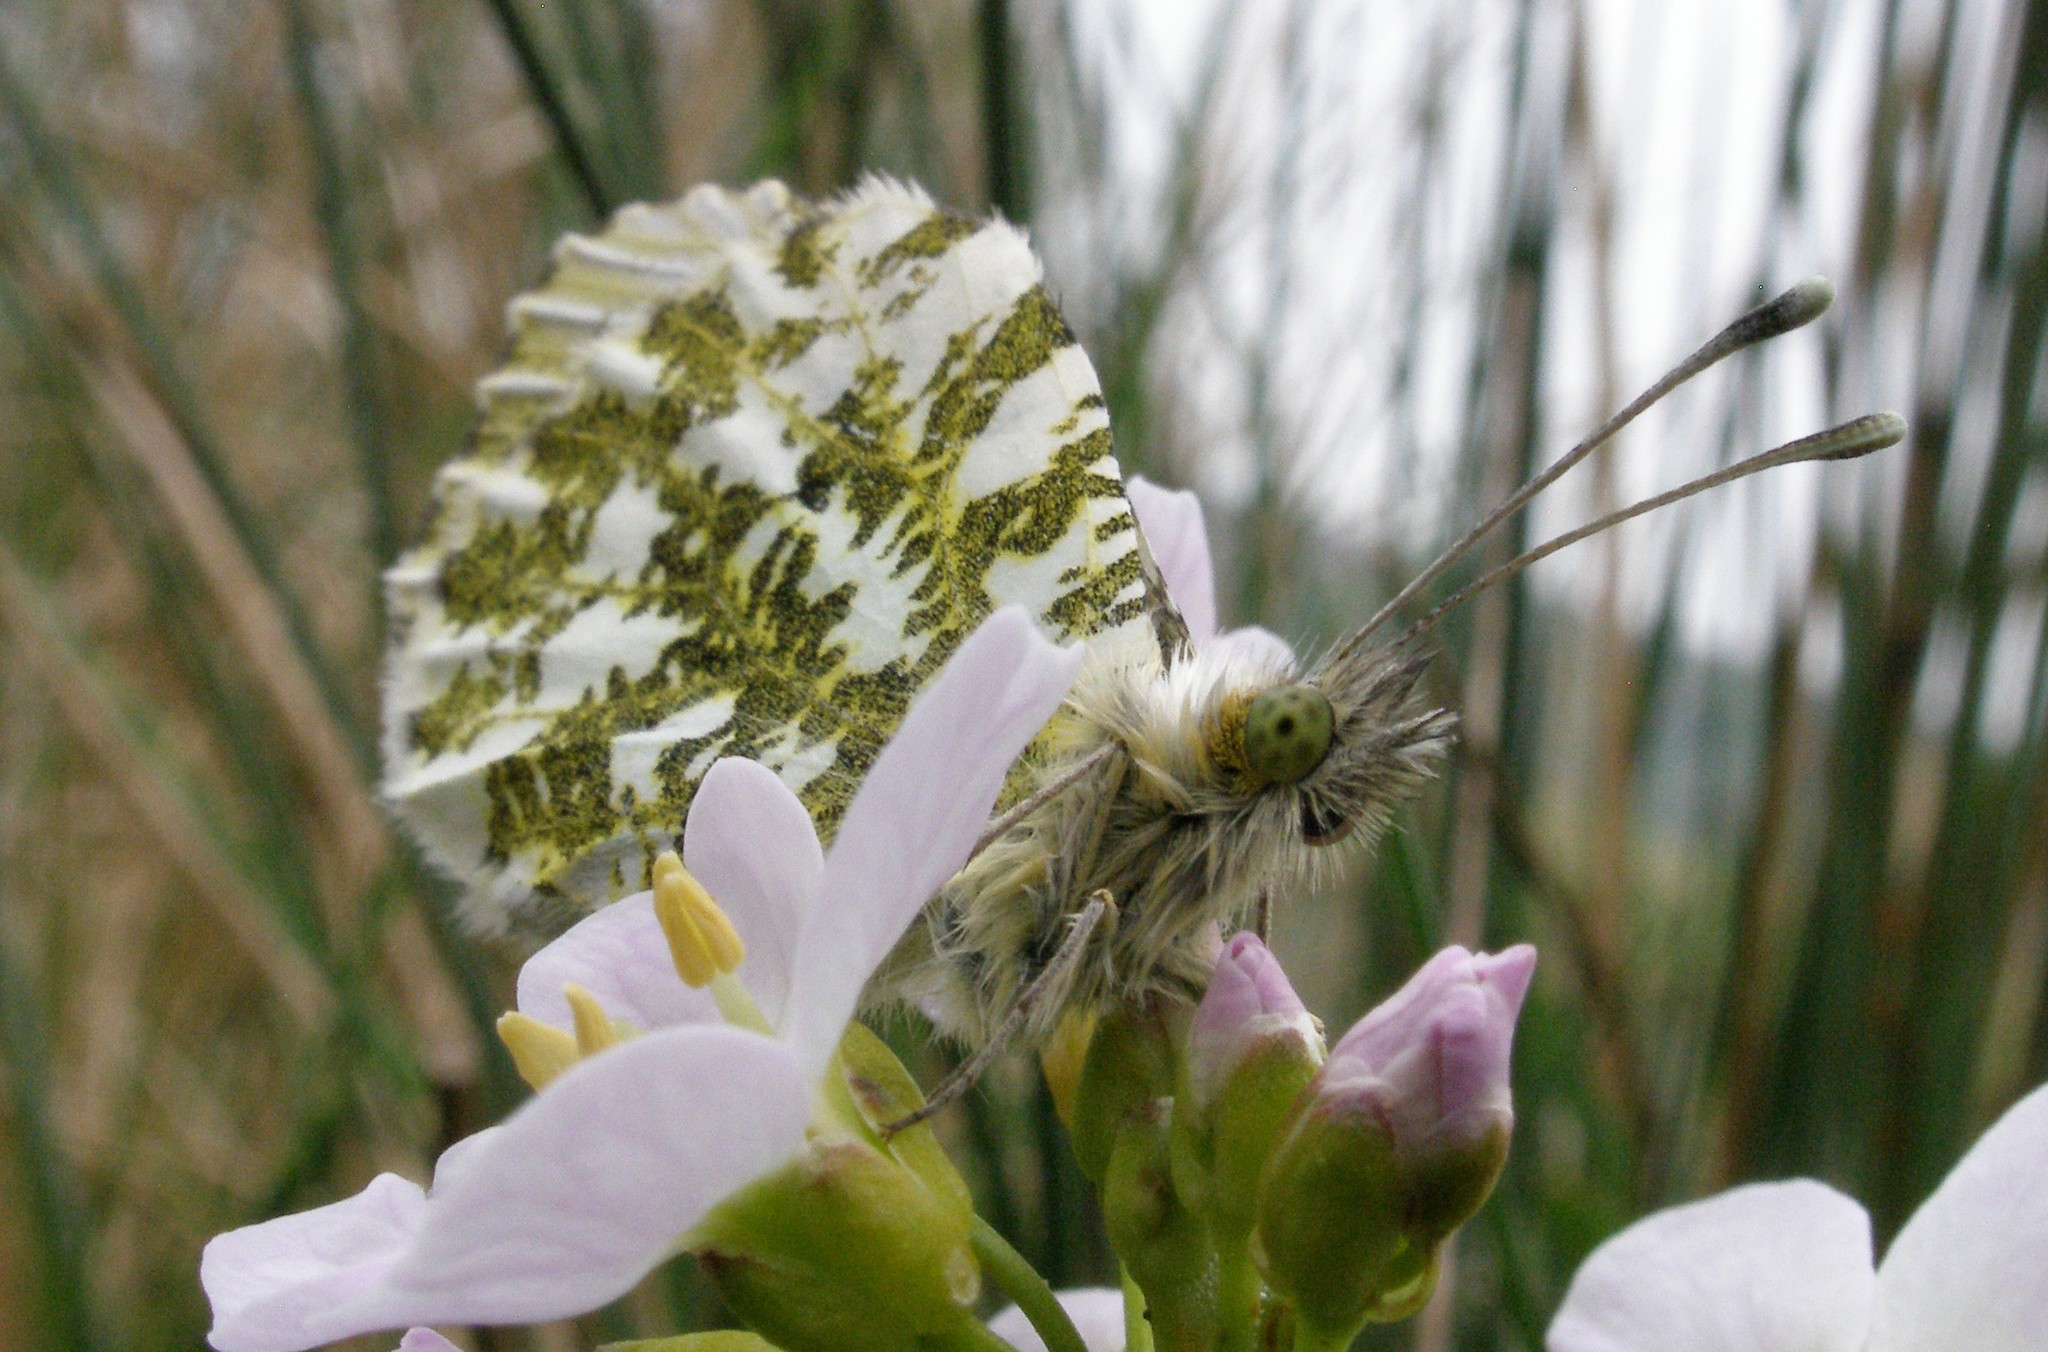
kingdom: Animalia
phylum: Arthropoda
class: Insecta
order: Lepidoptera
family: Pieridae
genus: Anthocharis
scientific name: Anthocharis cardamines
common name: Orange-tip
